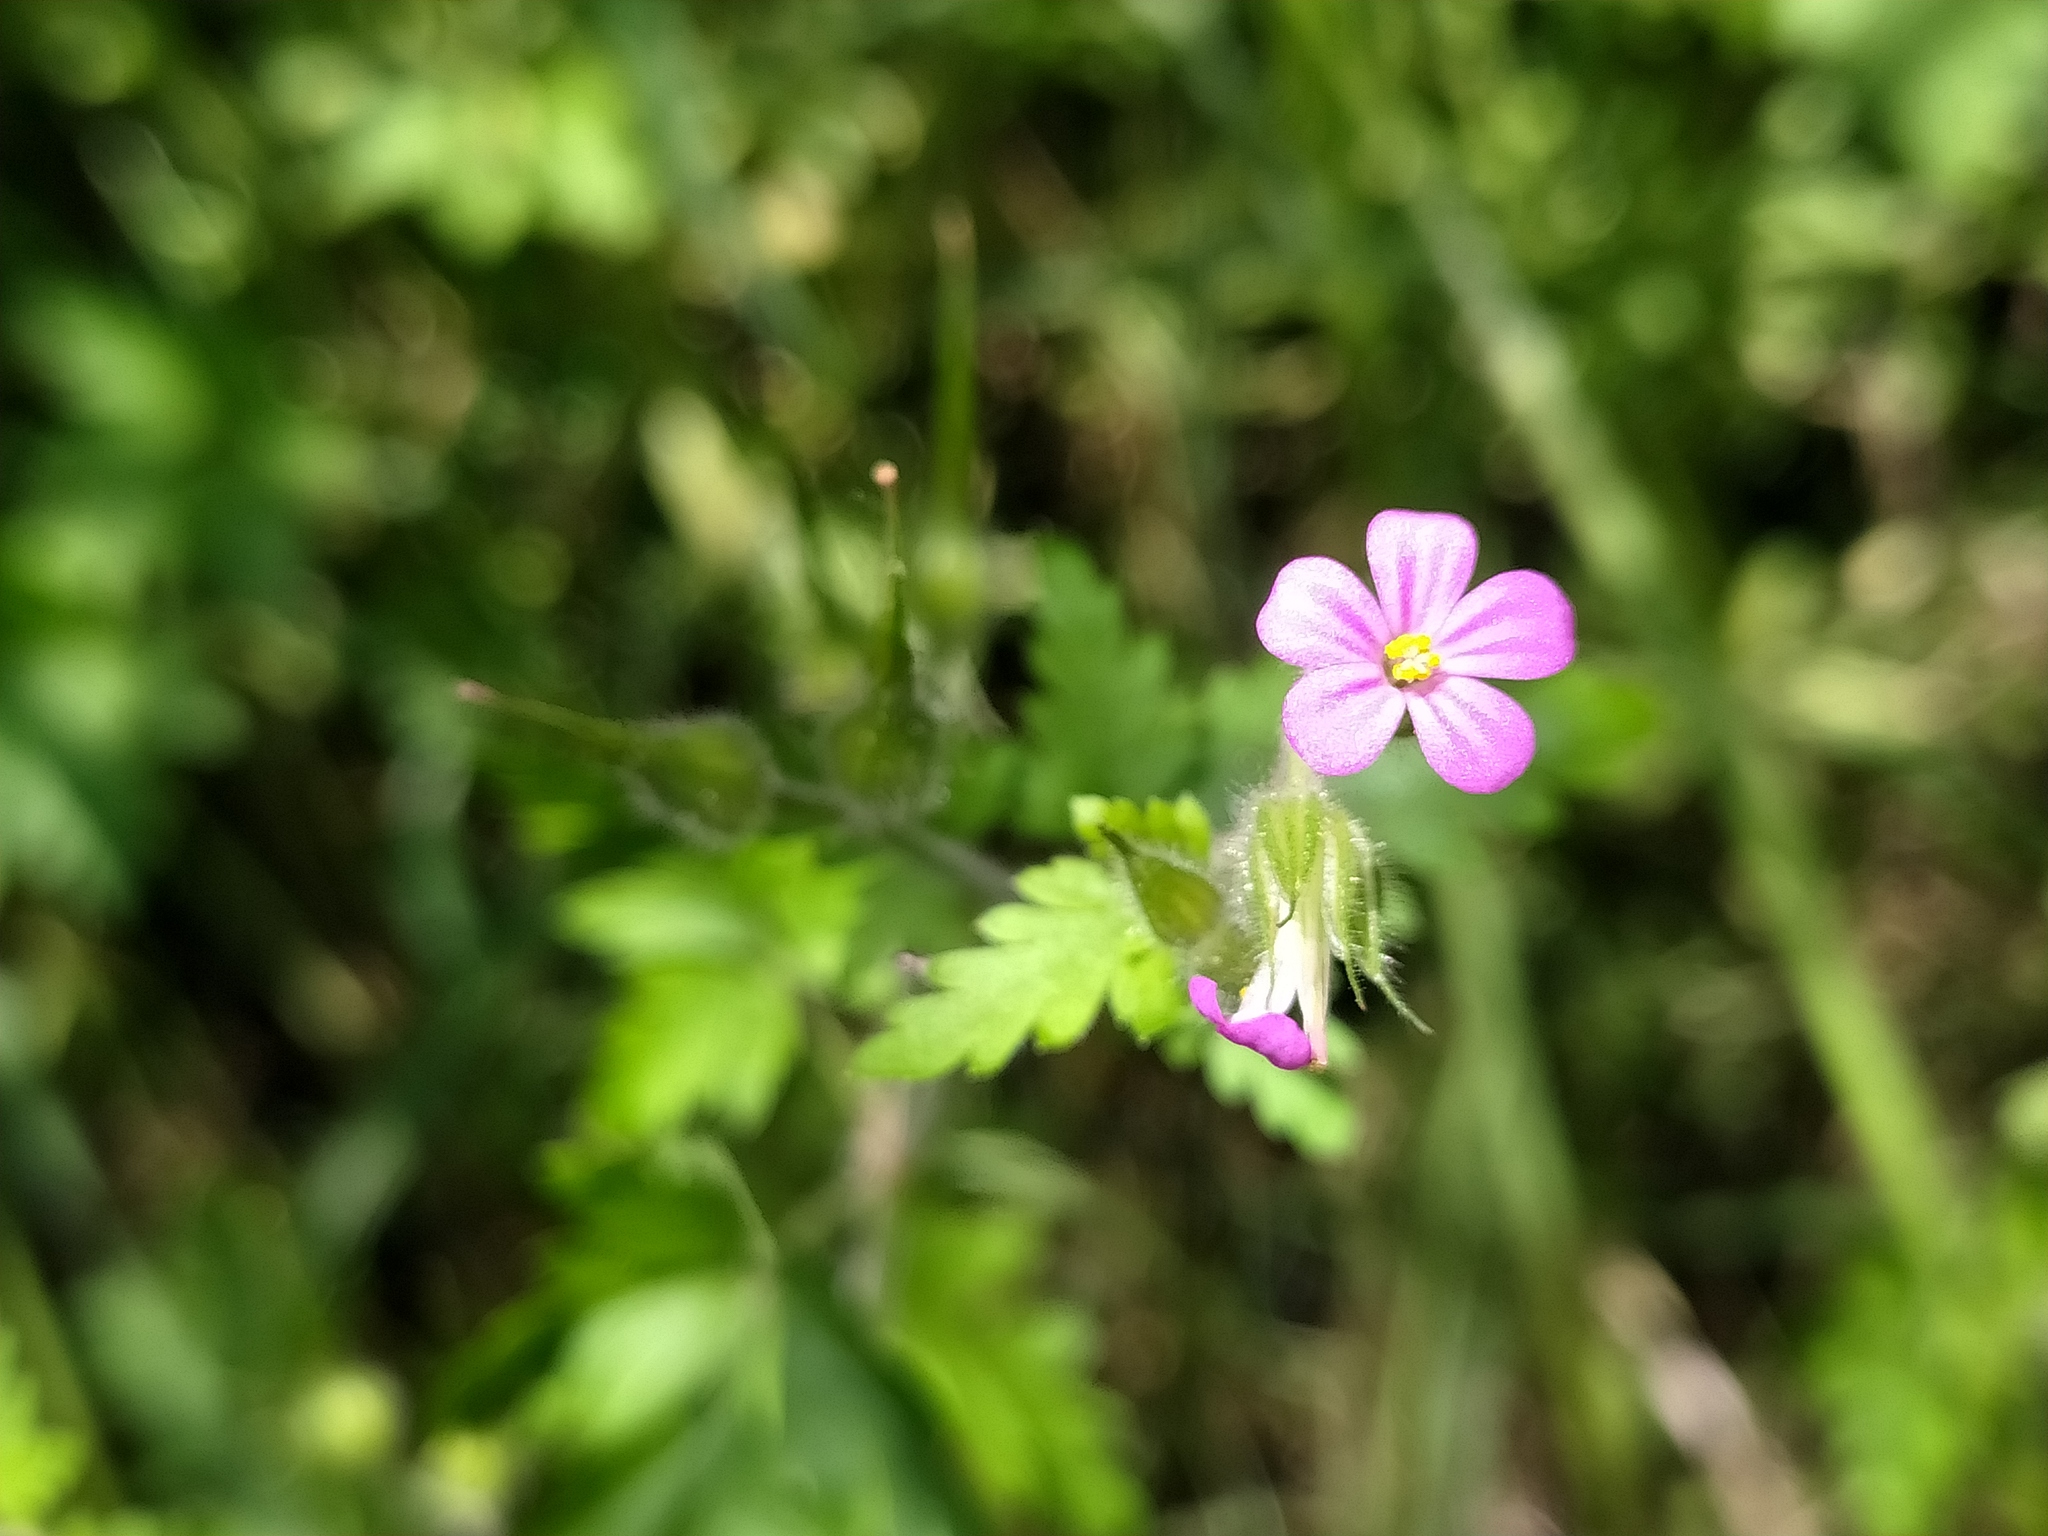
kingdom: Plantae
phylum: Tracheophyta
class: Magnoliopsida
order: Geraniales
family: Geraniaceae
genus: Geranium
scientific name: Geranium purpureum
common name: Little-robin
